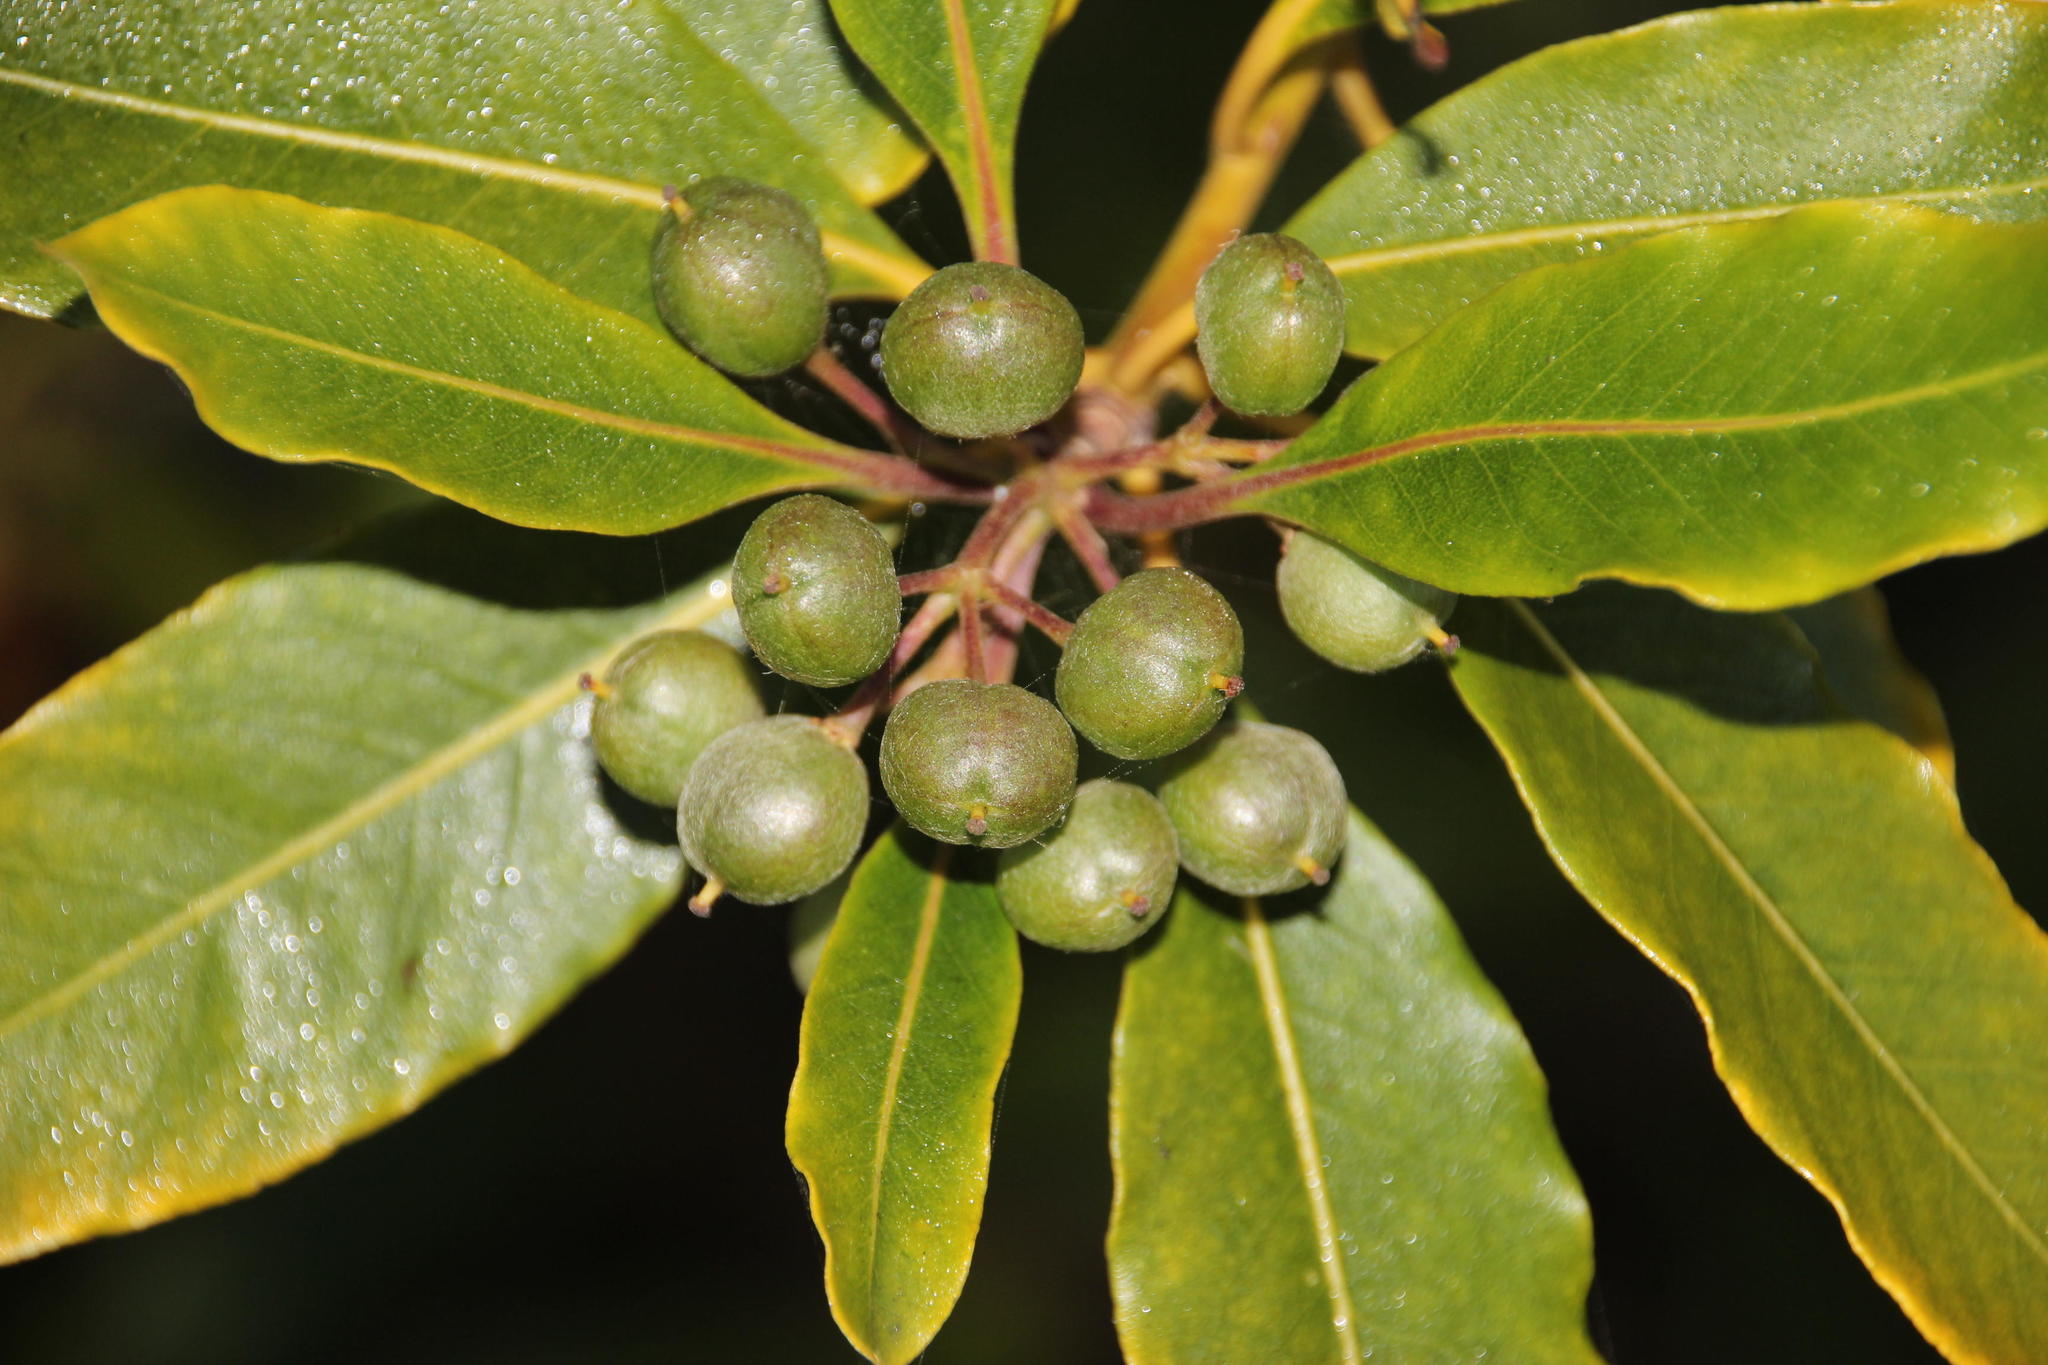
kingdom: Plantae
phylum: Tracheophyta
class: Magnoliopsida
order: Apiales
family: Pittosporaceae
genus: Pittosporum
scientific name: Pittosporum undulatum
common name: Australian cheesewood
